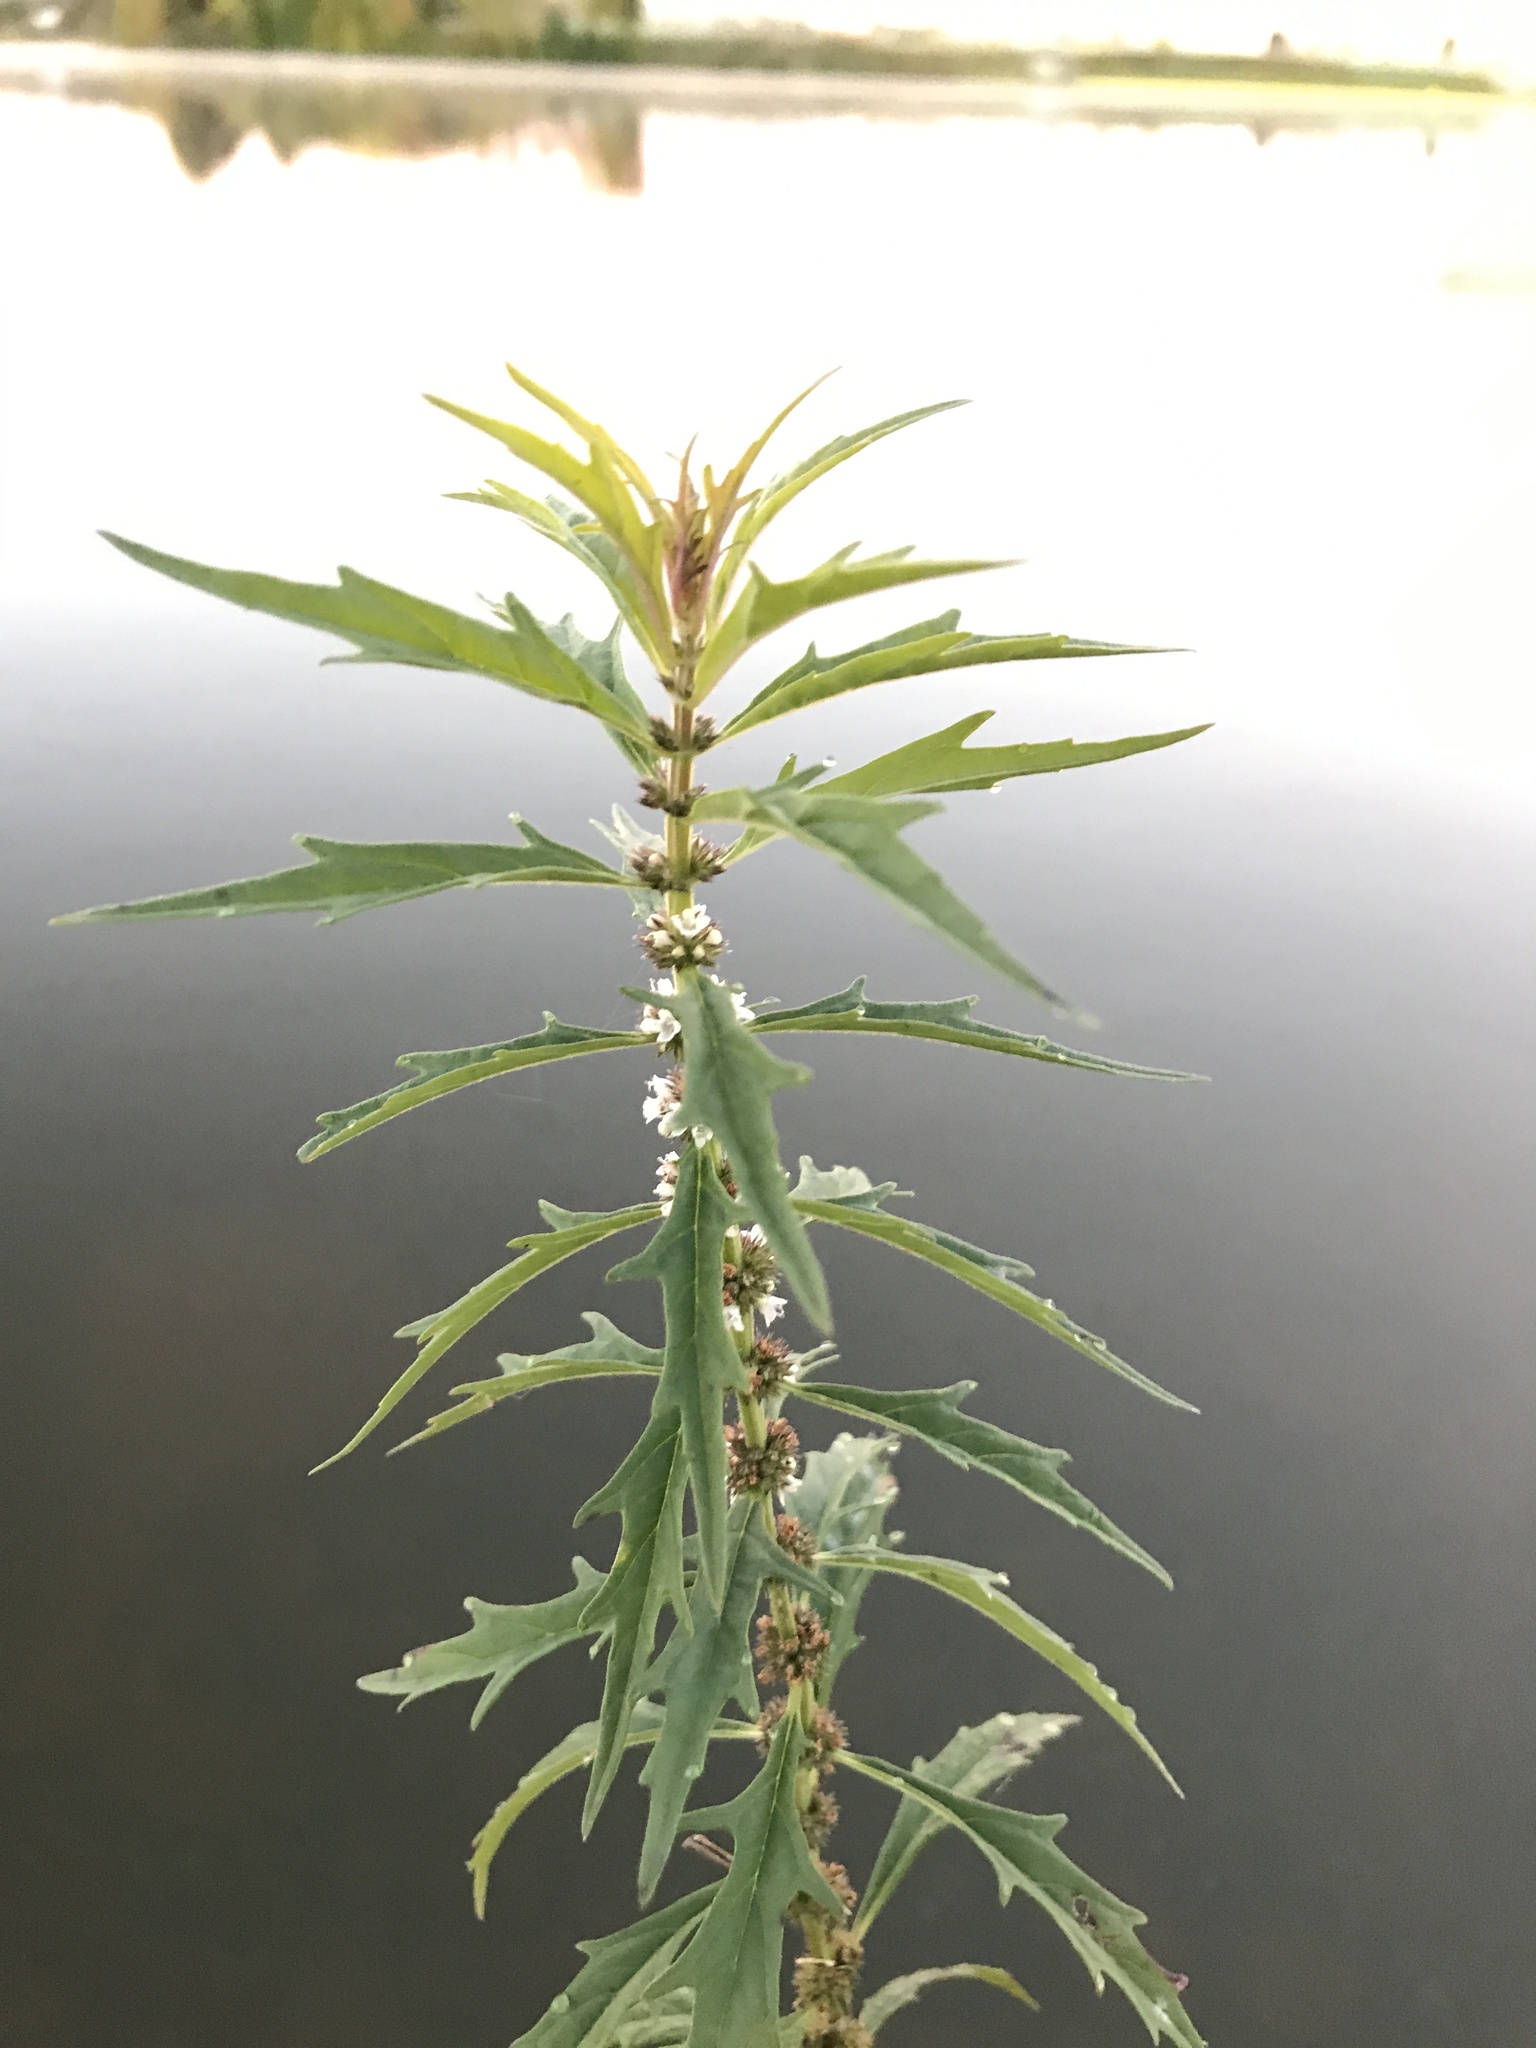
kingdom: Plantae
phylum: Tracheophyta
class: Magnoliopsida
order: Lamiales
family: Lamiaceae
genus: Lycopus
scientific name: Lycopus americanus
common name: American bugleweed
